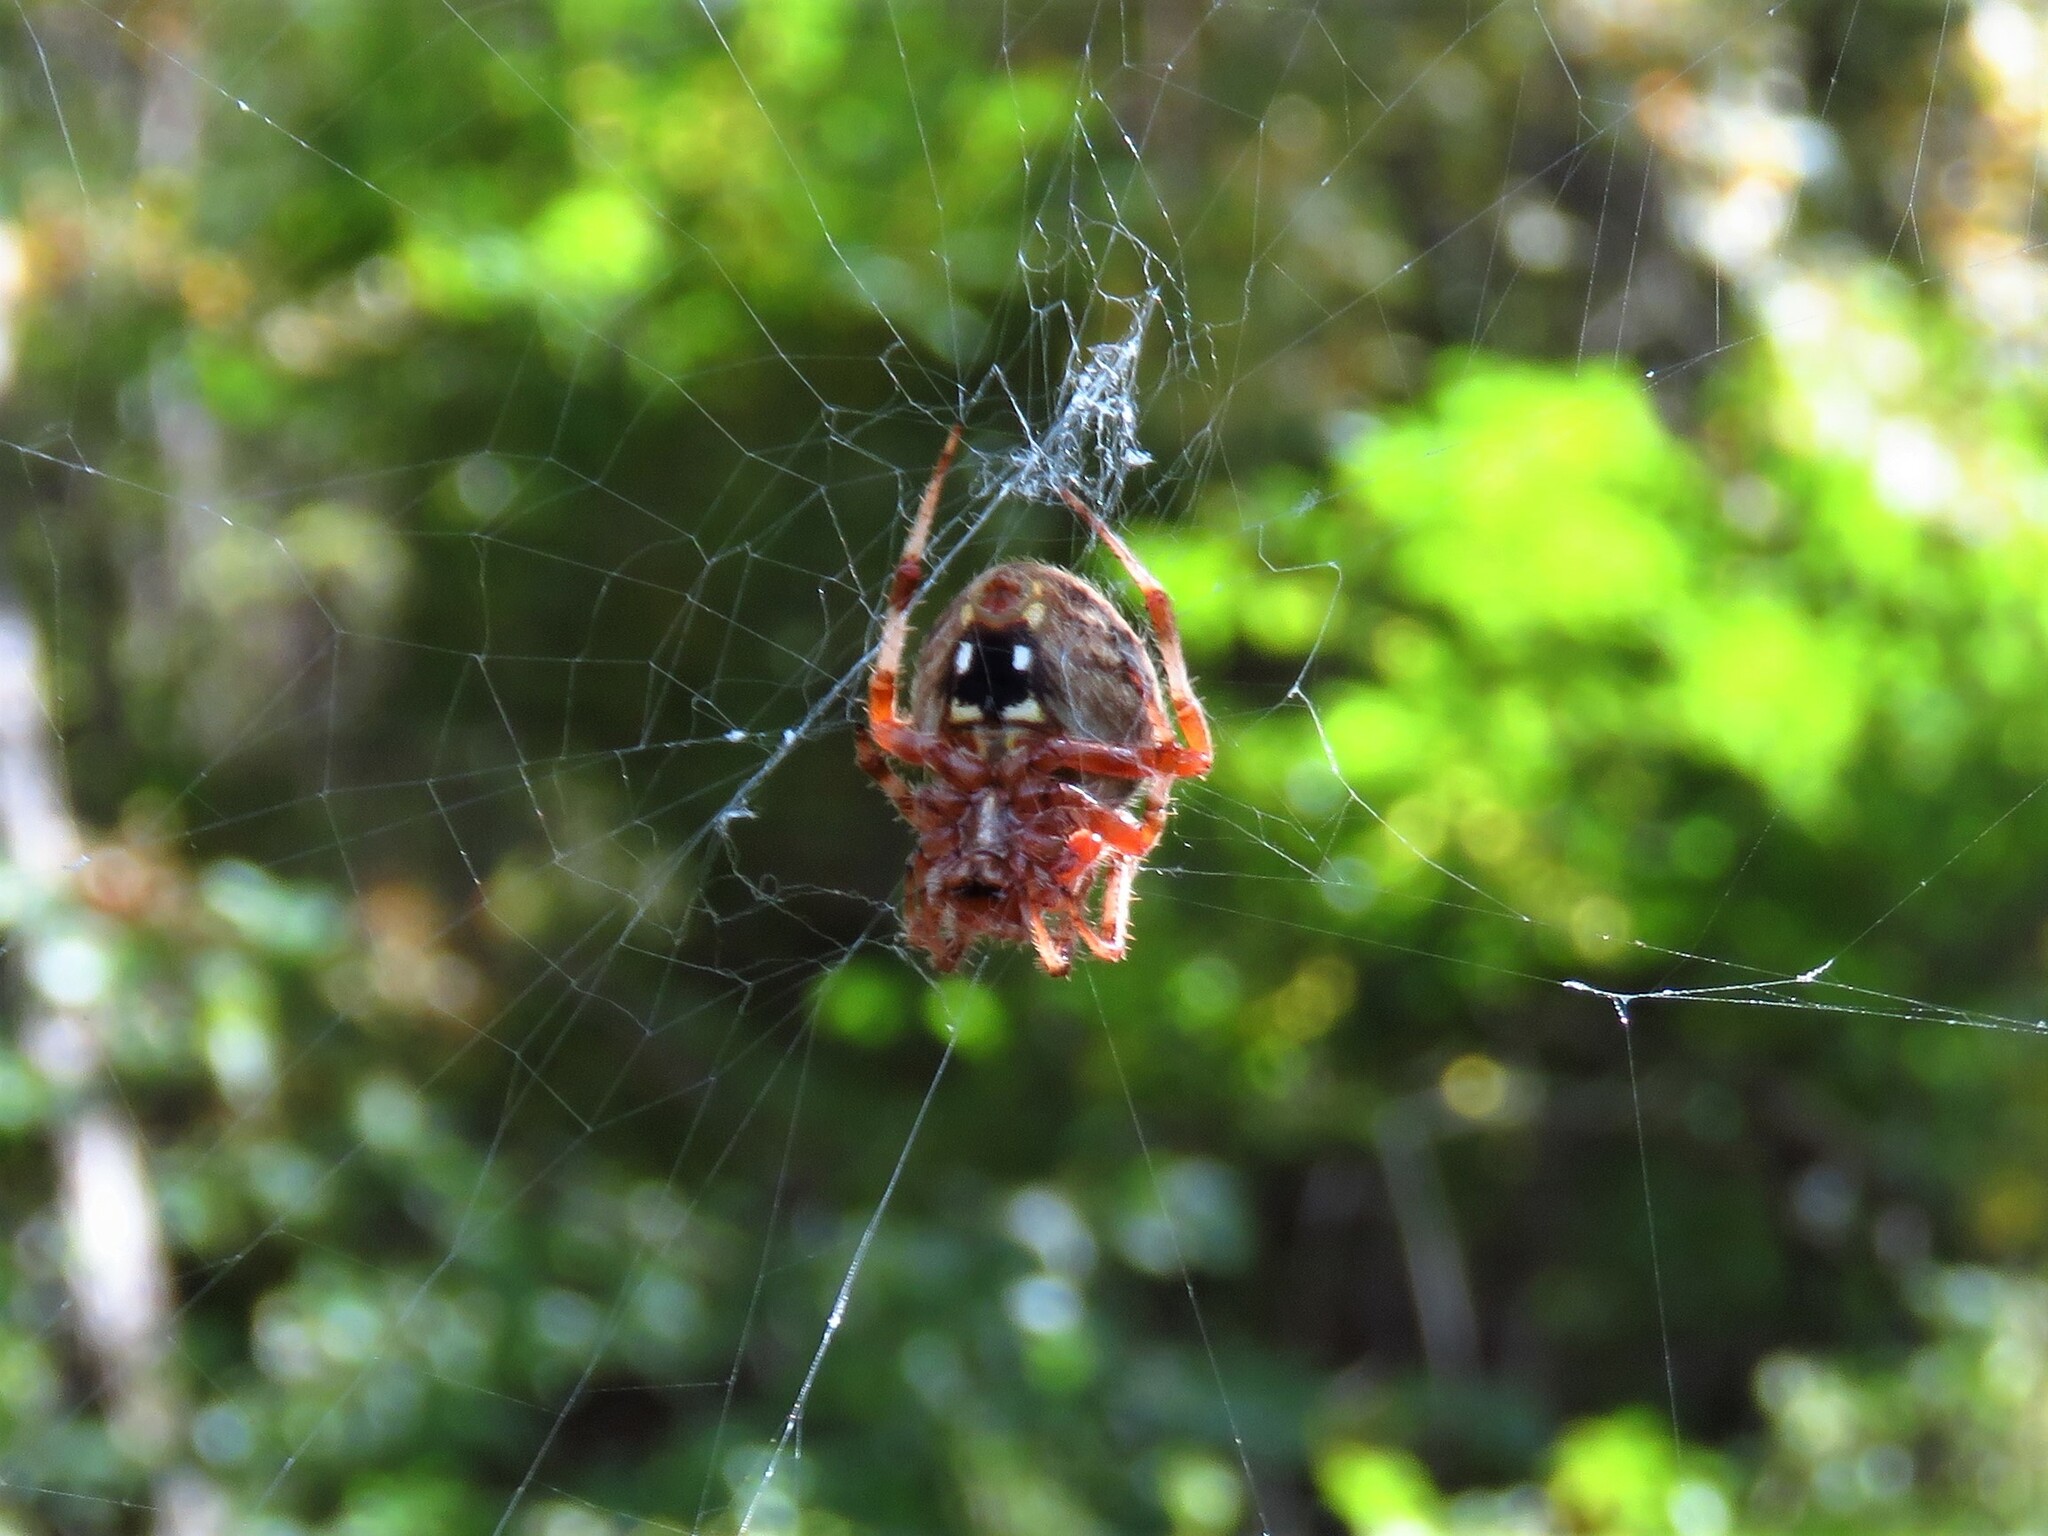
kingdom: Animalia
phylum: Arthropoda
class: Arachnida
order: Araneae
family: Araneidae
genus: Neoscona
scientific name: Neoscona crucifera
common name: Spotted orbweaver
